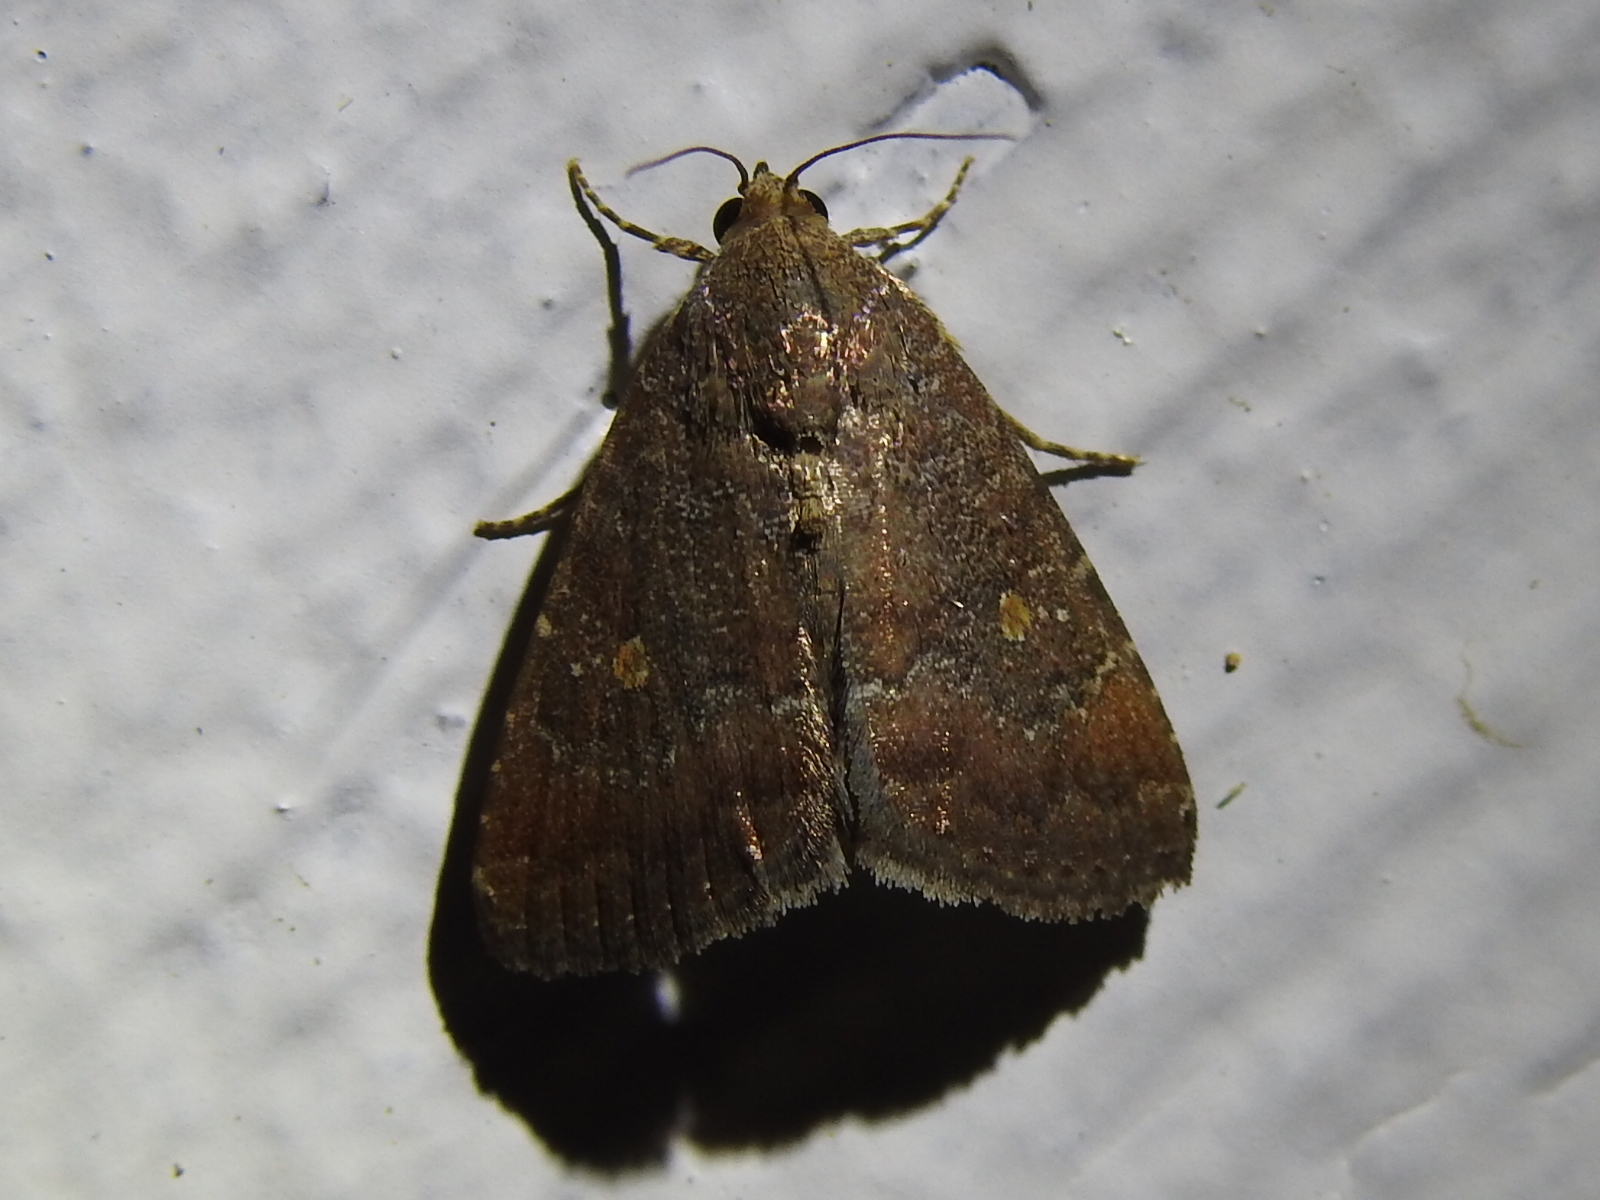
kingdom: Animalia
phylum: Arthropoda
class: Insecta
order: Lepidoptera
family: Noctuidae
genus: Amyna
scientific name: Amyna stricta
